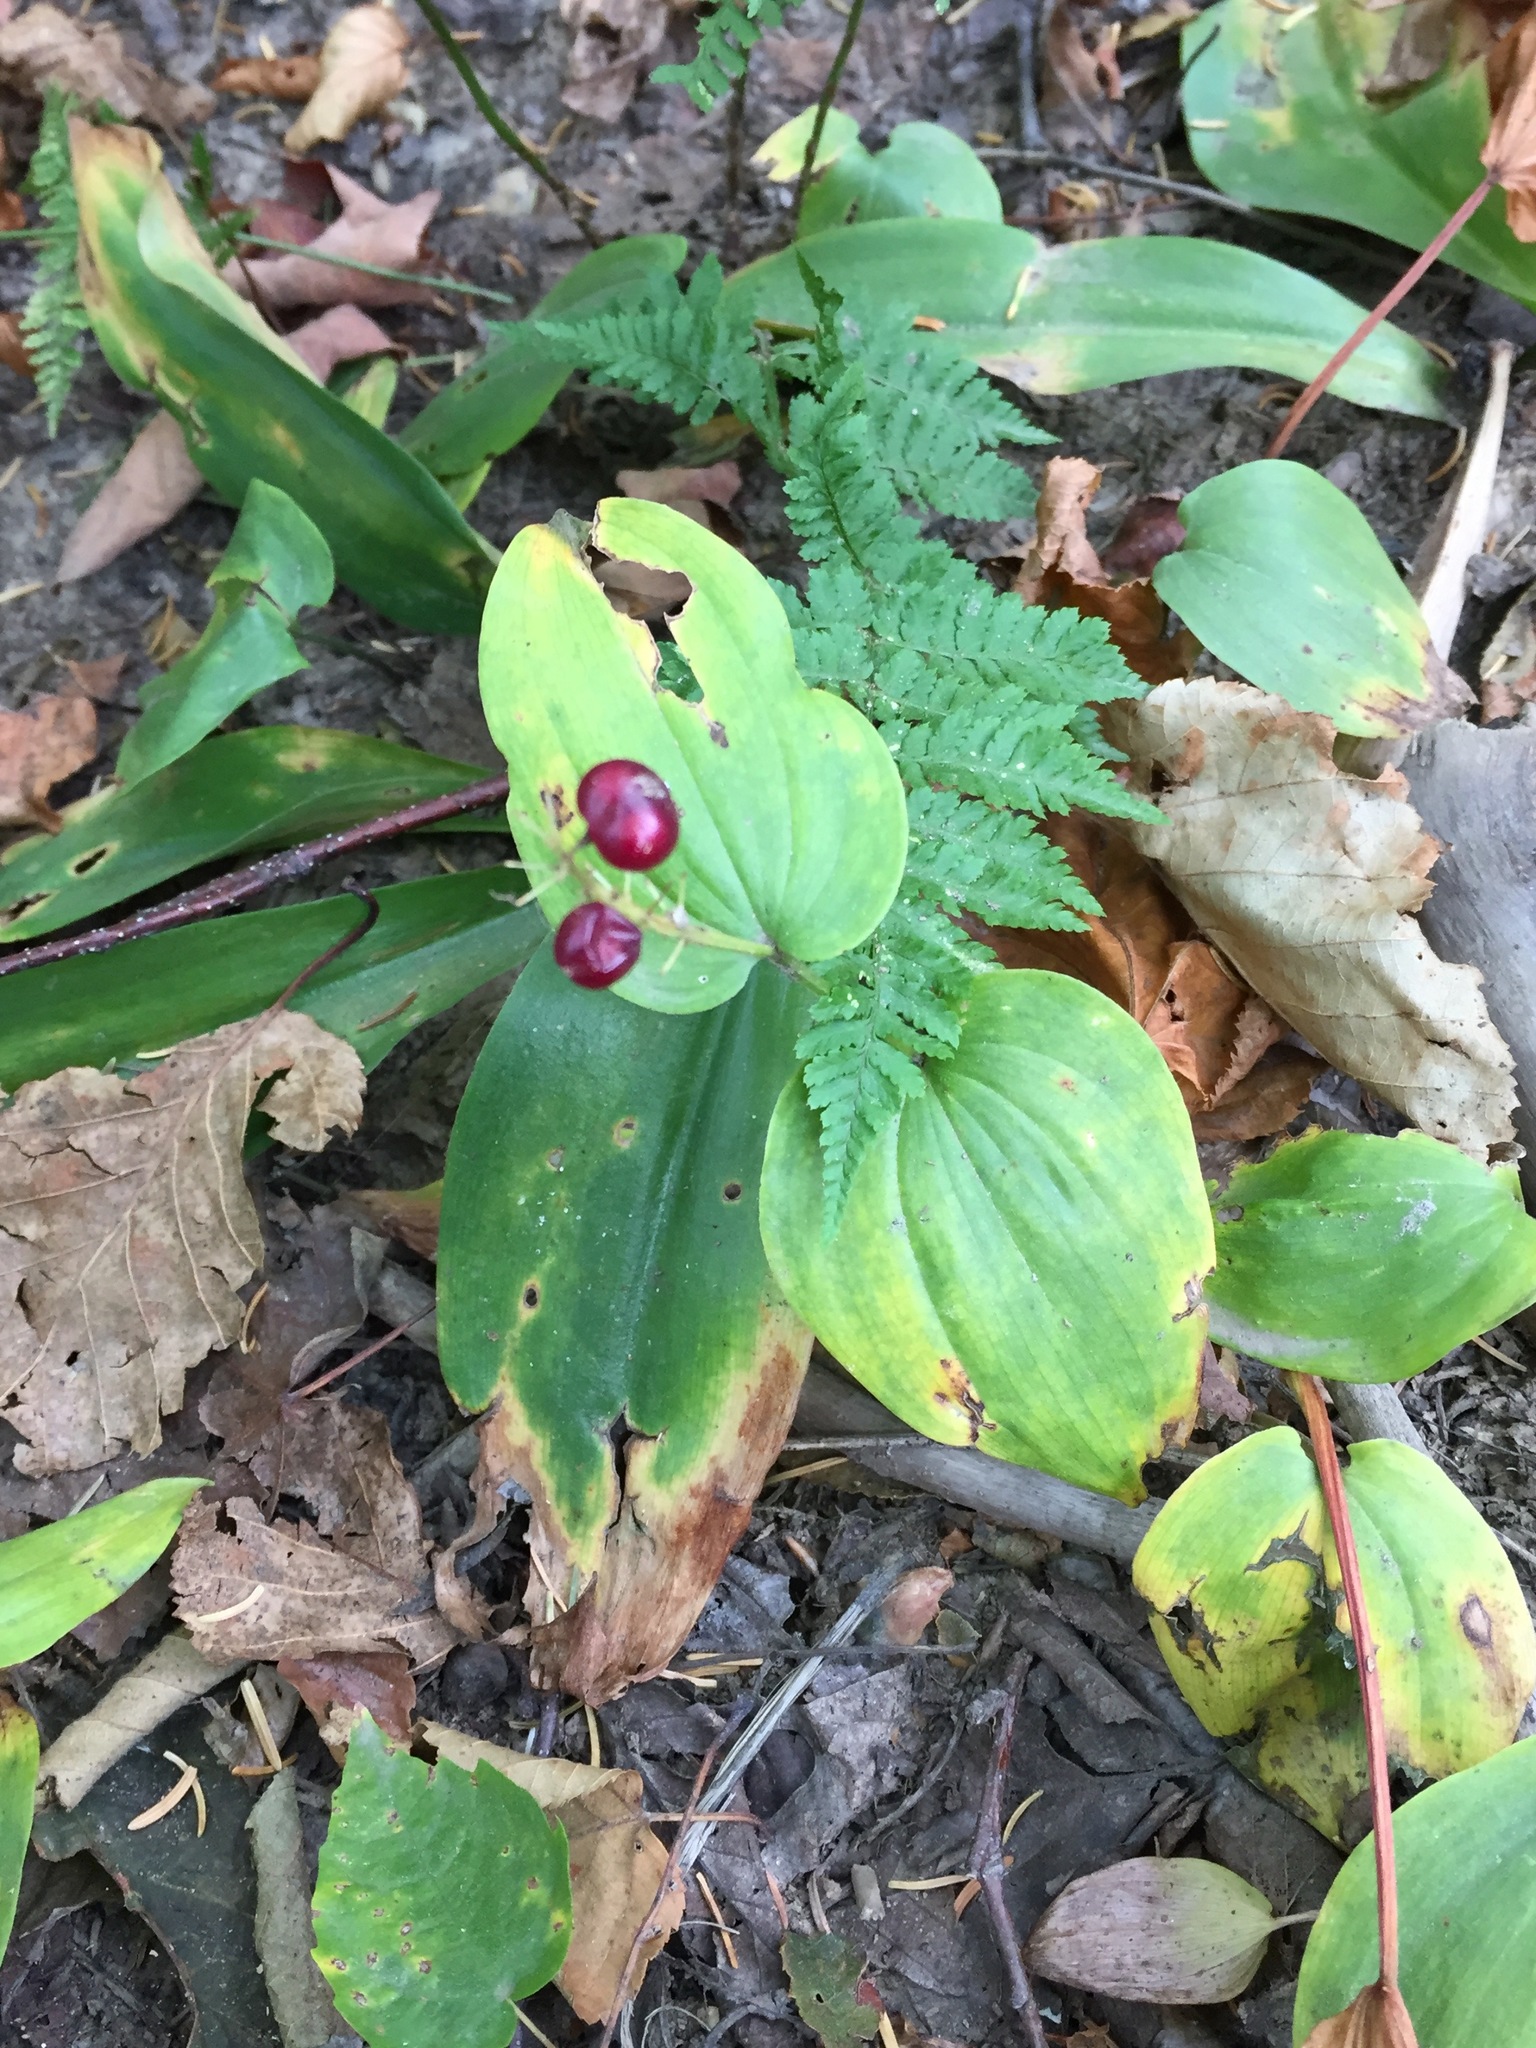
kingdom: Plantae
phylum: Tracheophyta
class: Liliopsida
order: Asparagales
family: Asparagaceae
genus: Maianthemum
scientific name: Maianthemum canadense
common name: False lily-of-the-valley
